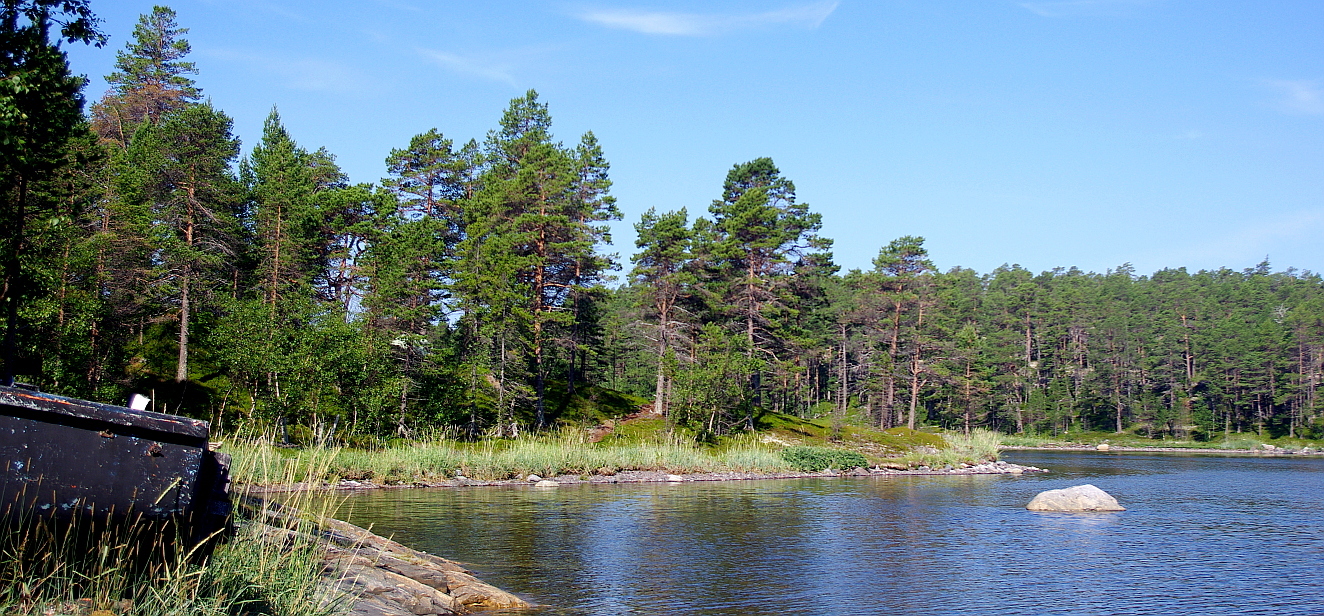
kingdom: Plantae
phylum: Tracheophyta
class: Pinopsida
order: Pinales
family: Pinaceae
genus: Pinus
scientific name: Pinus sylvestris
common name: Scots pine
